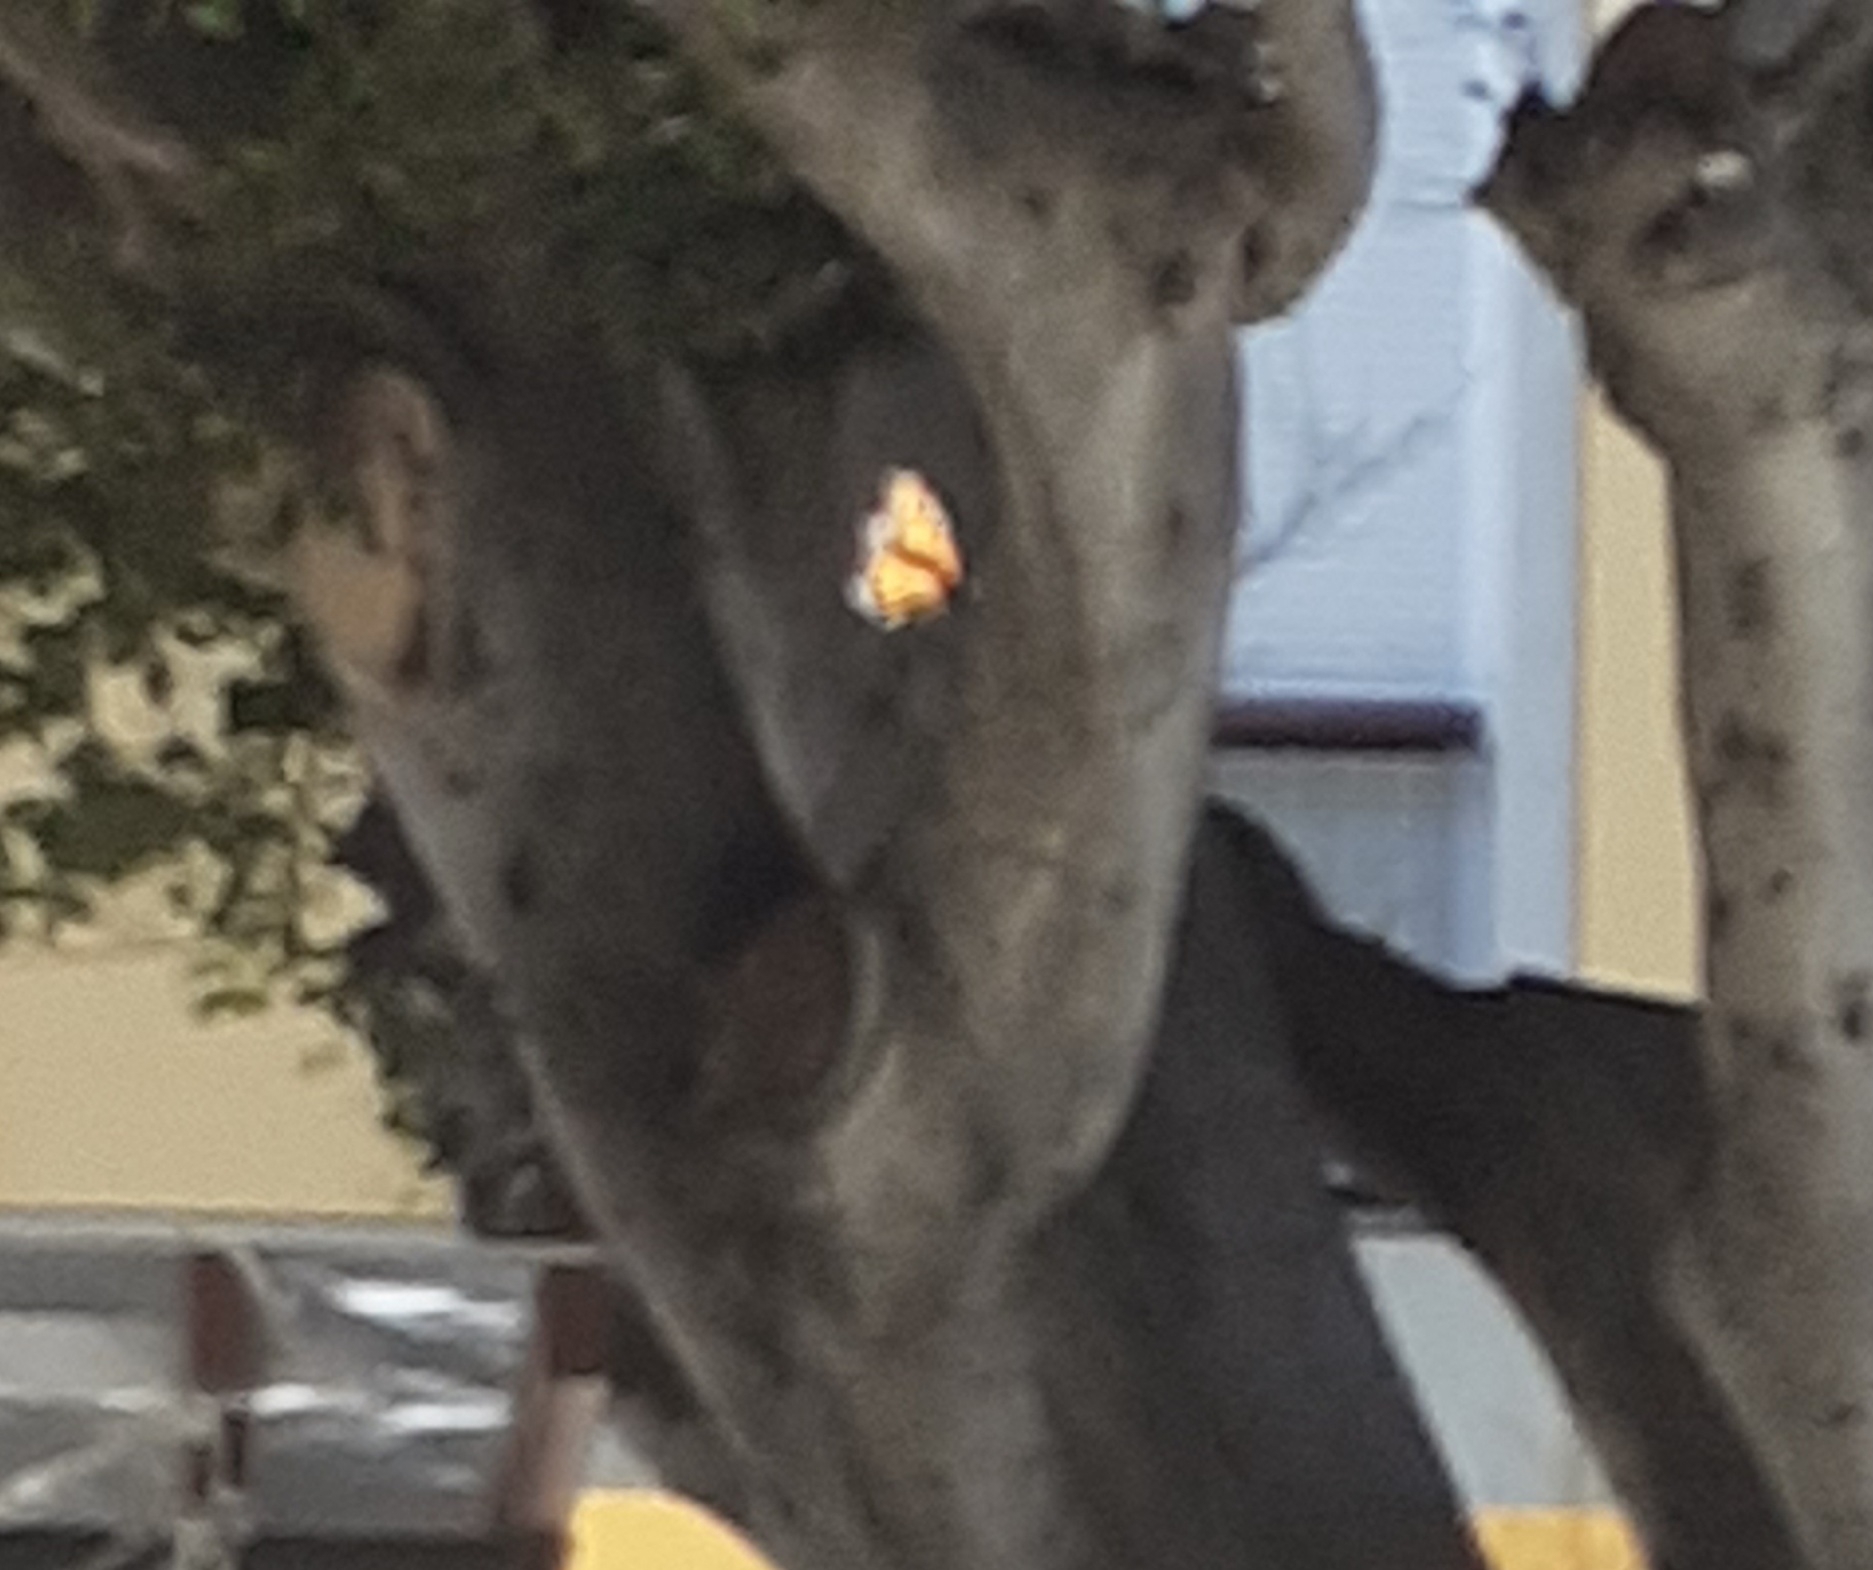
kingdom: Animalia
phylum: Arthropoda
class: Insecta
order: Lepidoptera
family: Nymphalidae
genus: Danaus
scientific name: Danaus plexippus
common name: Monarch
